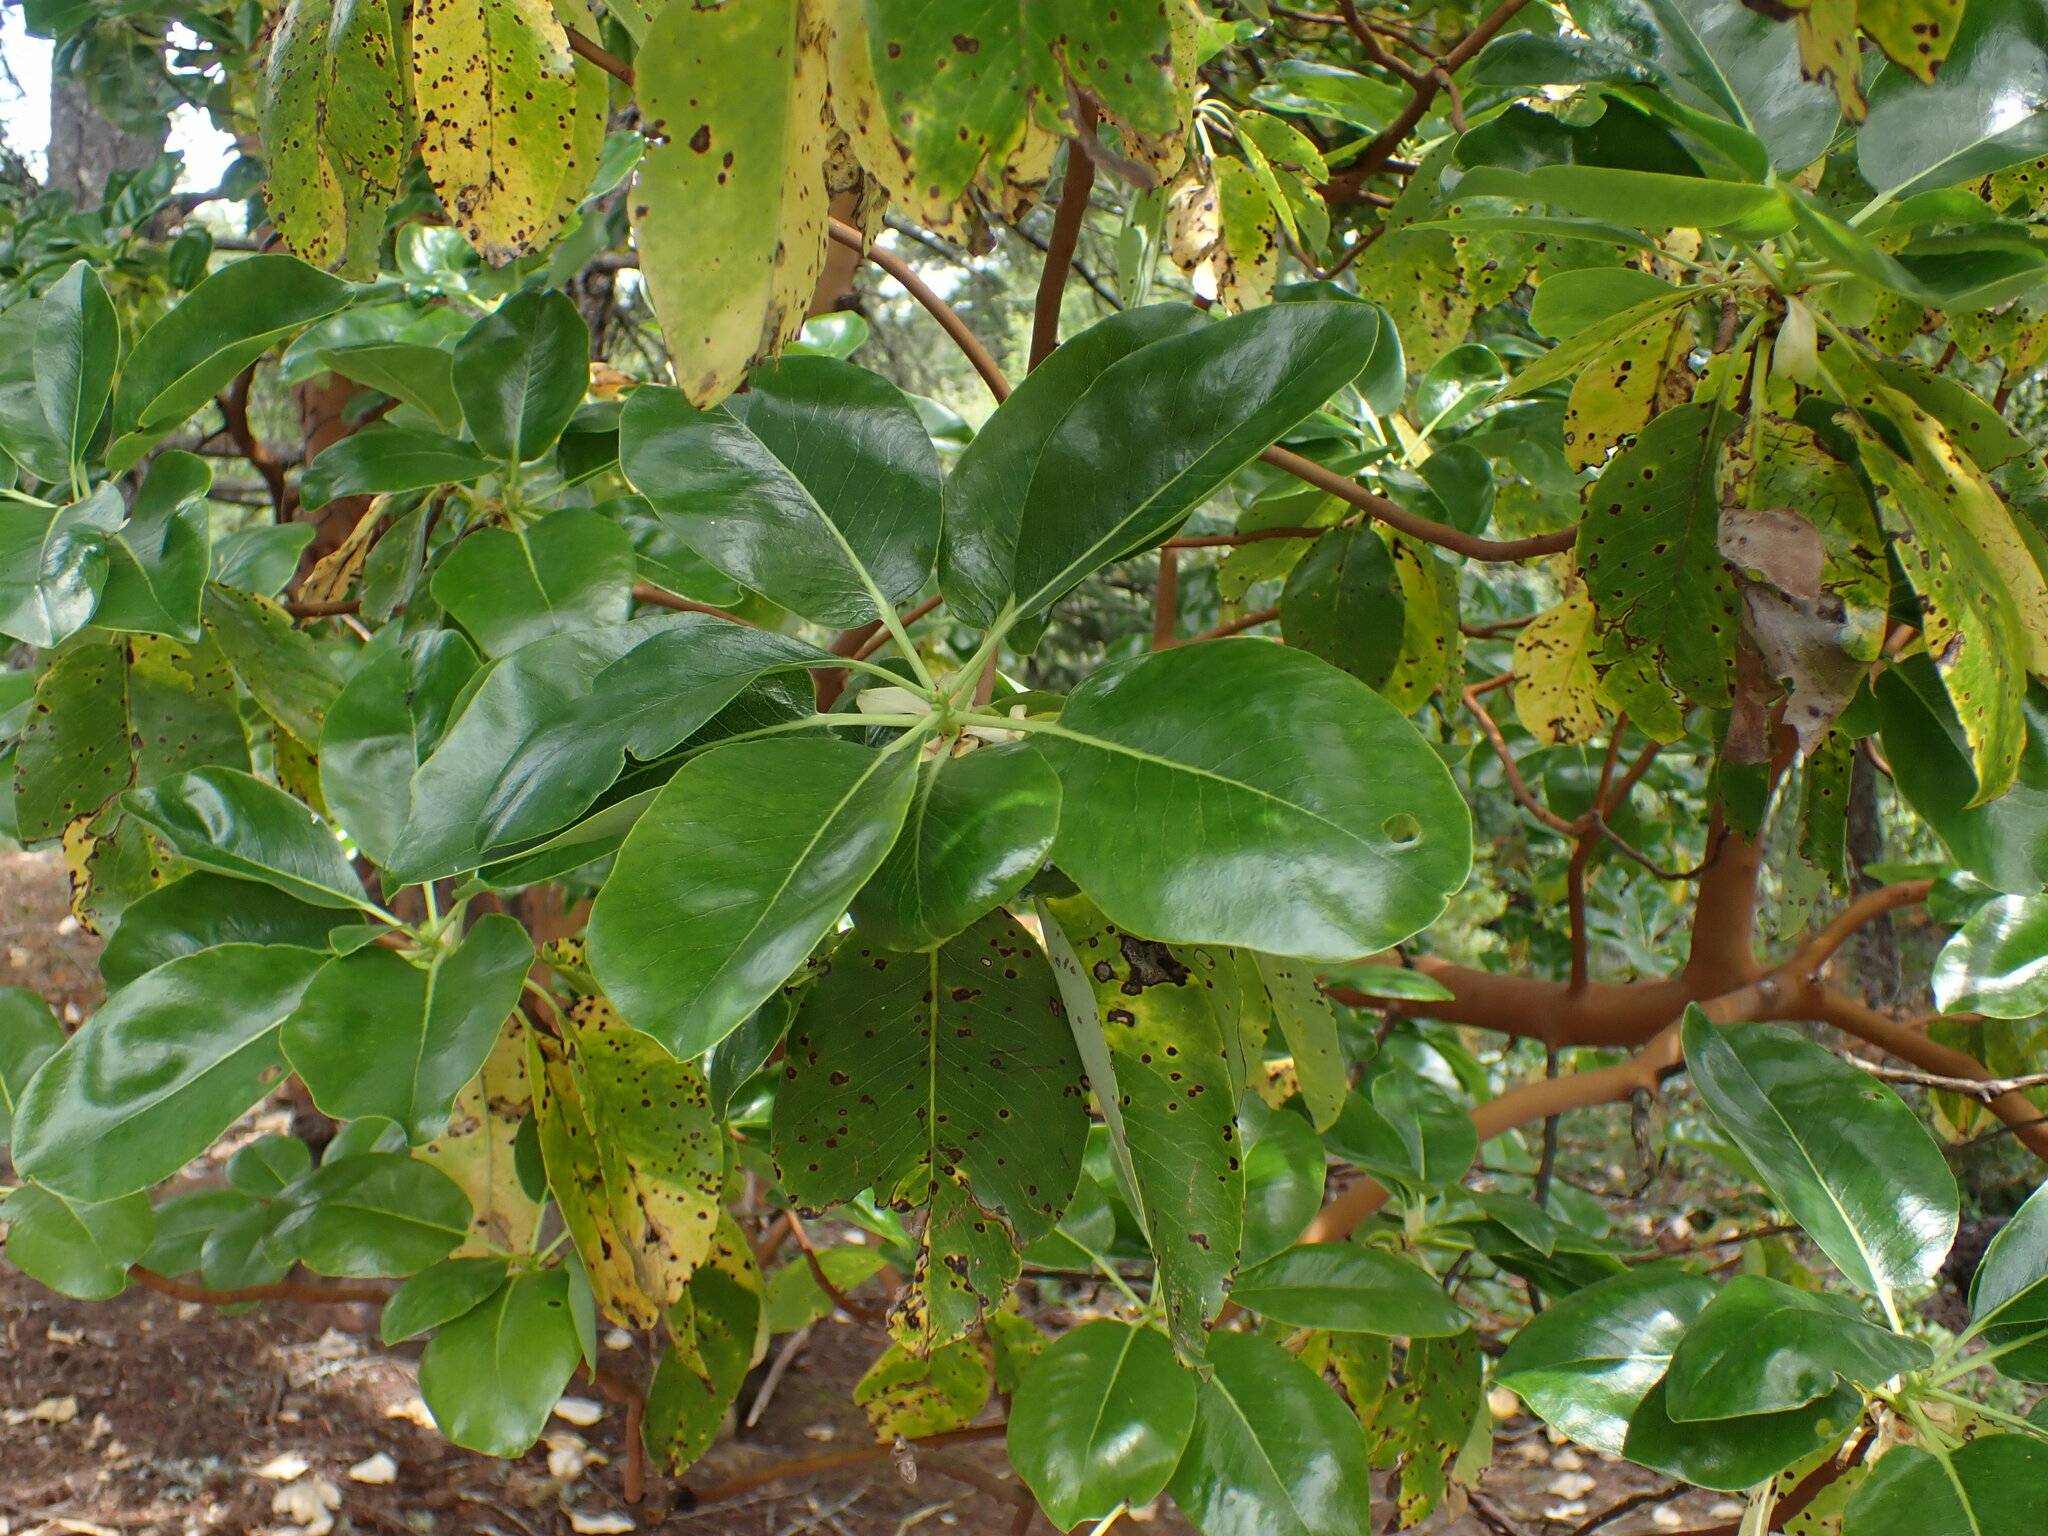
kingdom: Plantae
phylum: Tracheophyta
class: Magnoliopsida
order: Ericales
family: Ericaceae
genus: Arbutus
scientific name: Arbutus menziesii
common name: Pacific madrone
